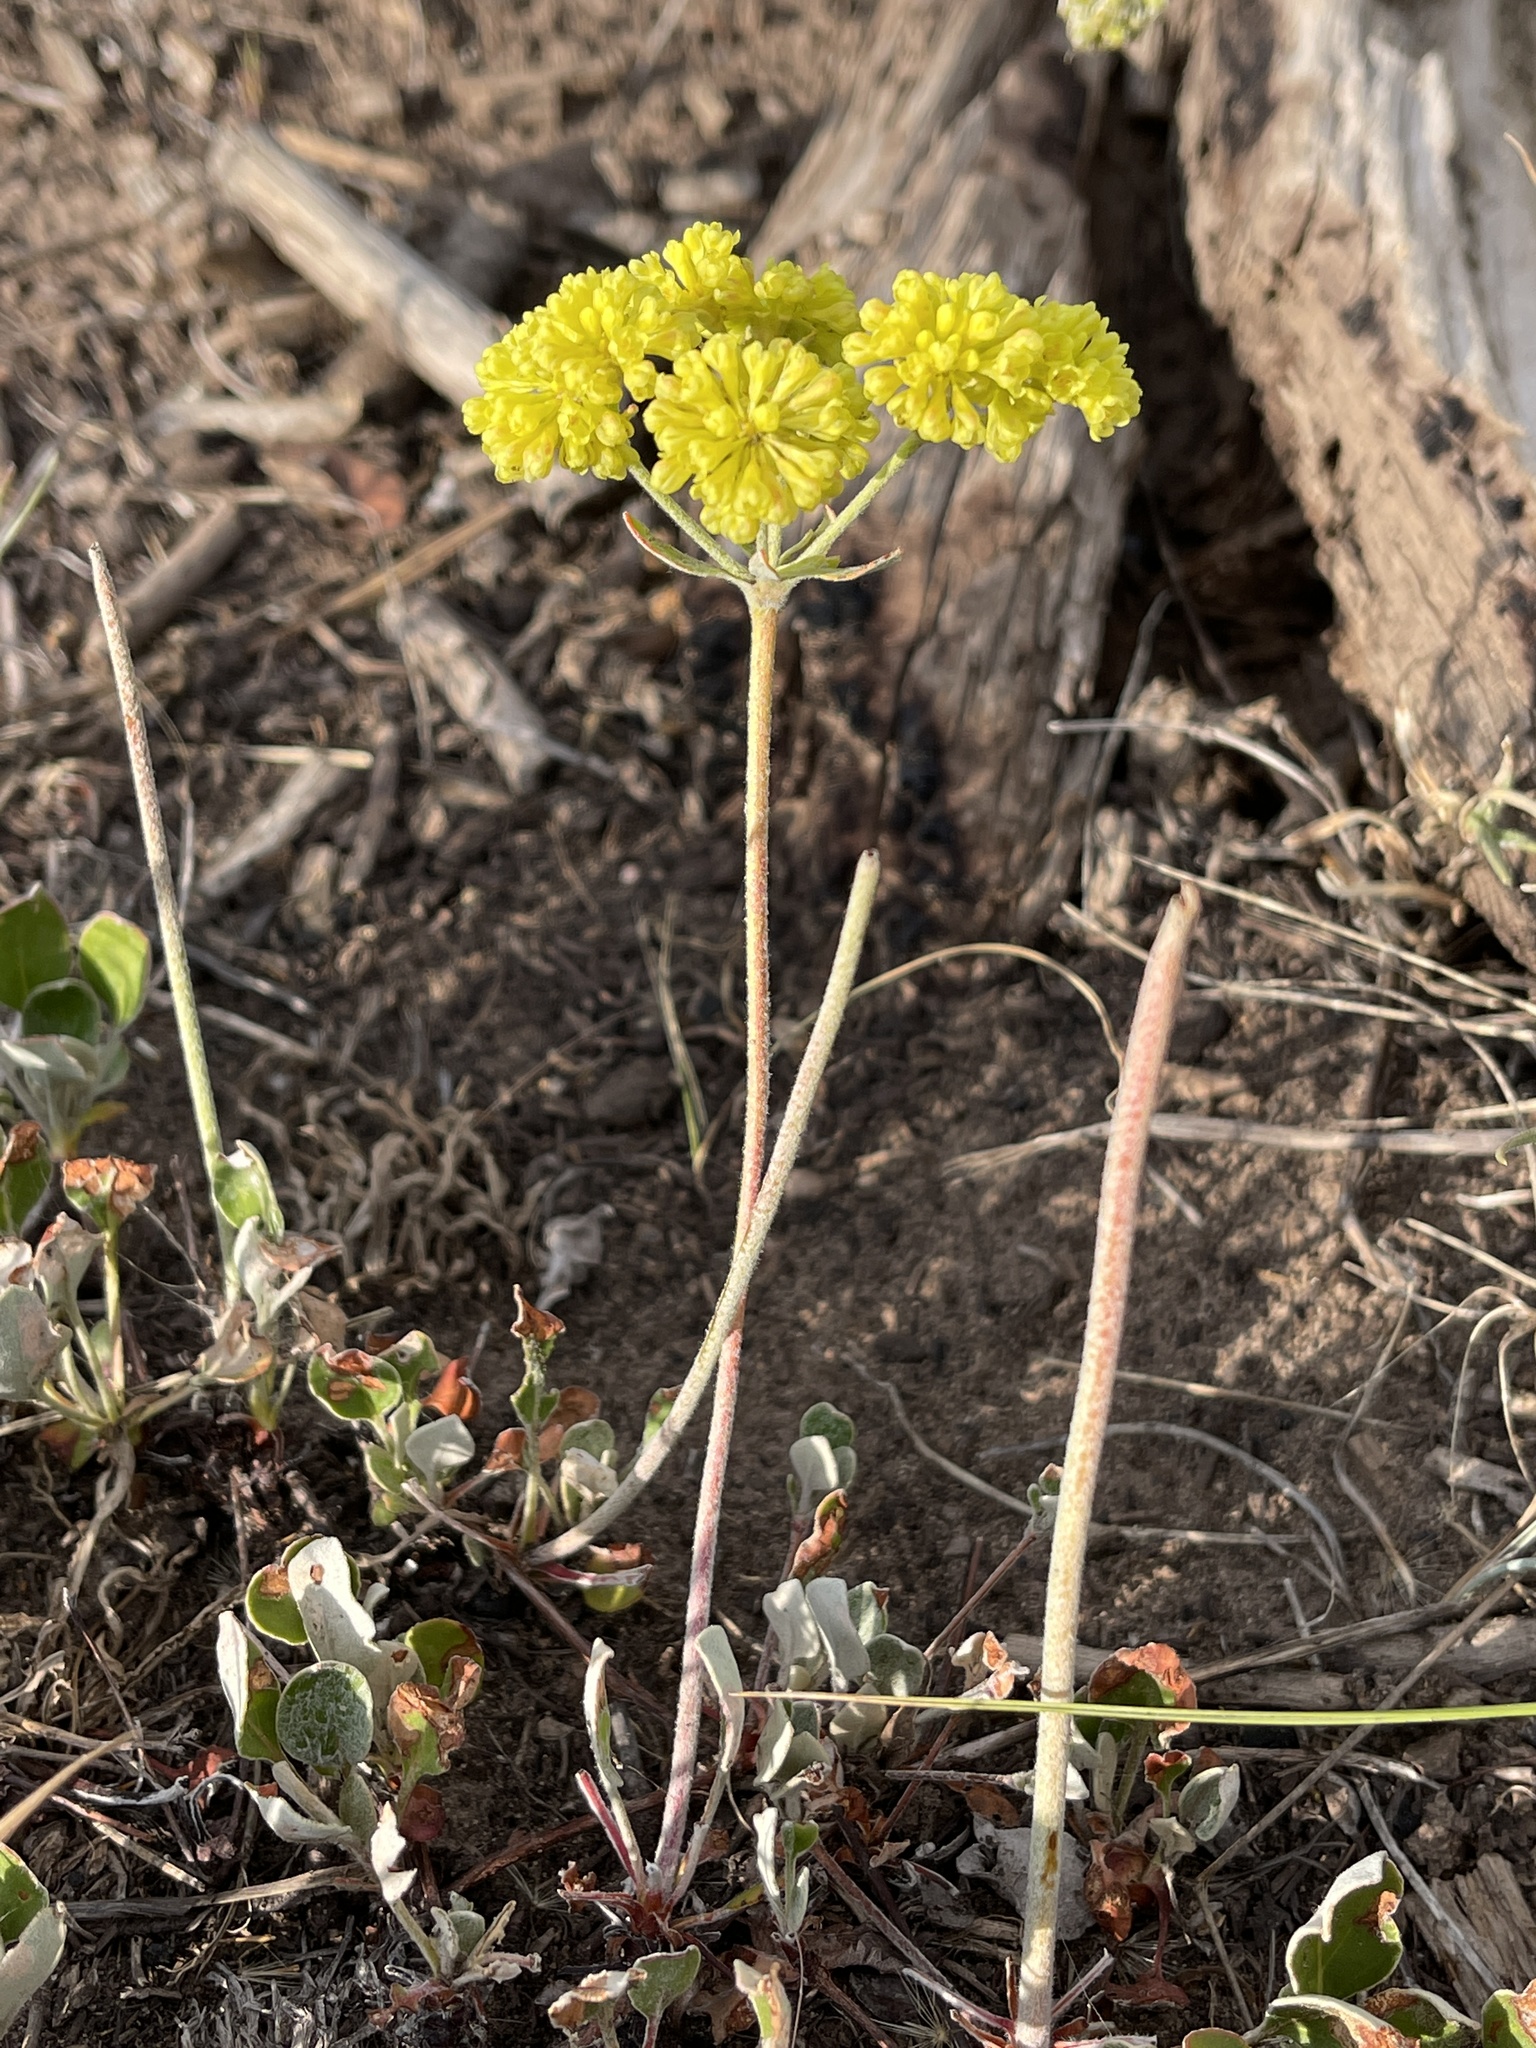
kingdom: Plantae
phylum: Tracheophyta
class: Magnoliopsida
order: Caryophyllales
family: Polygonaceae
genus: Eriogonum
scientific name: Eriogonum umbellatum
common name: Sulfur-buckwheat
